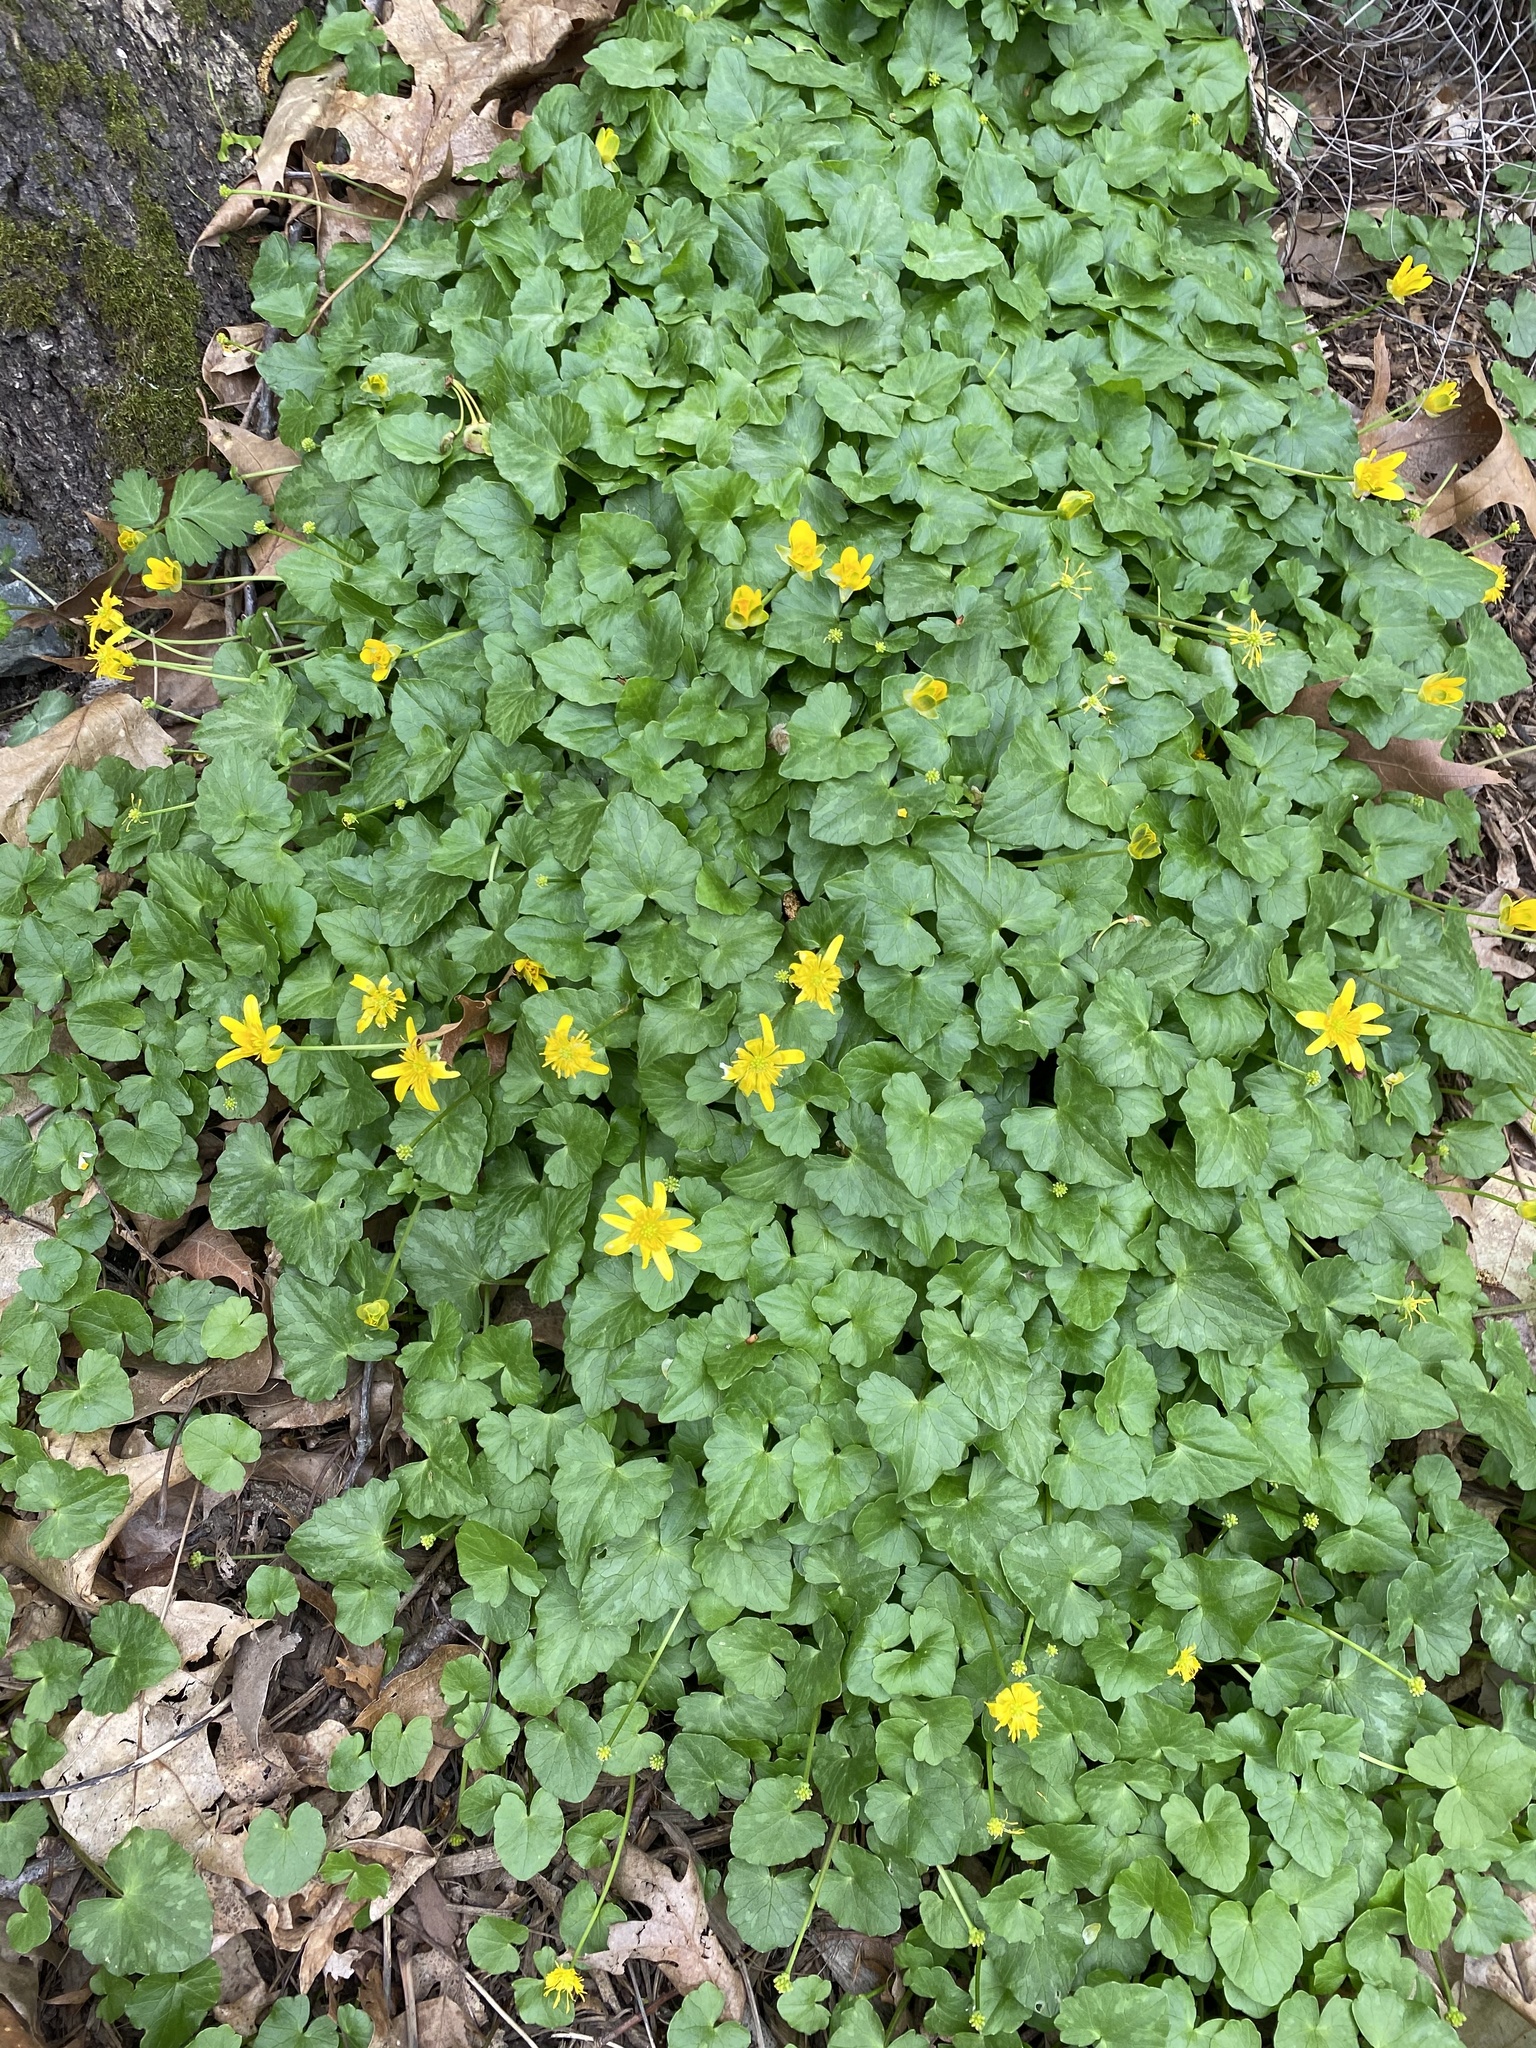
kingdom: Plantae
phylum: Tracheophyta
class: Magnoliopsida
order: Ranunculales
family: Ranunculaceae
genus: Ficaria
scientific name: Ficaria verna
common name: Lesser celandine
